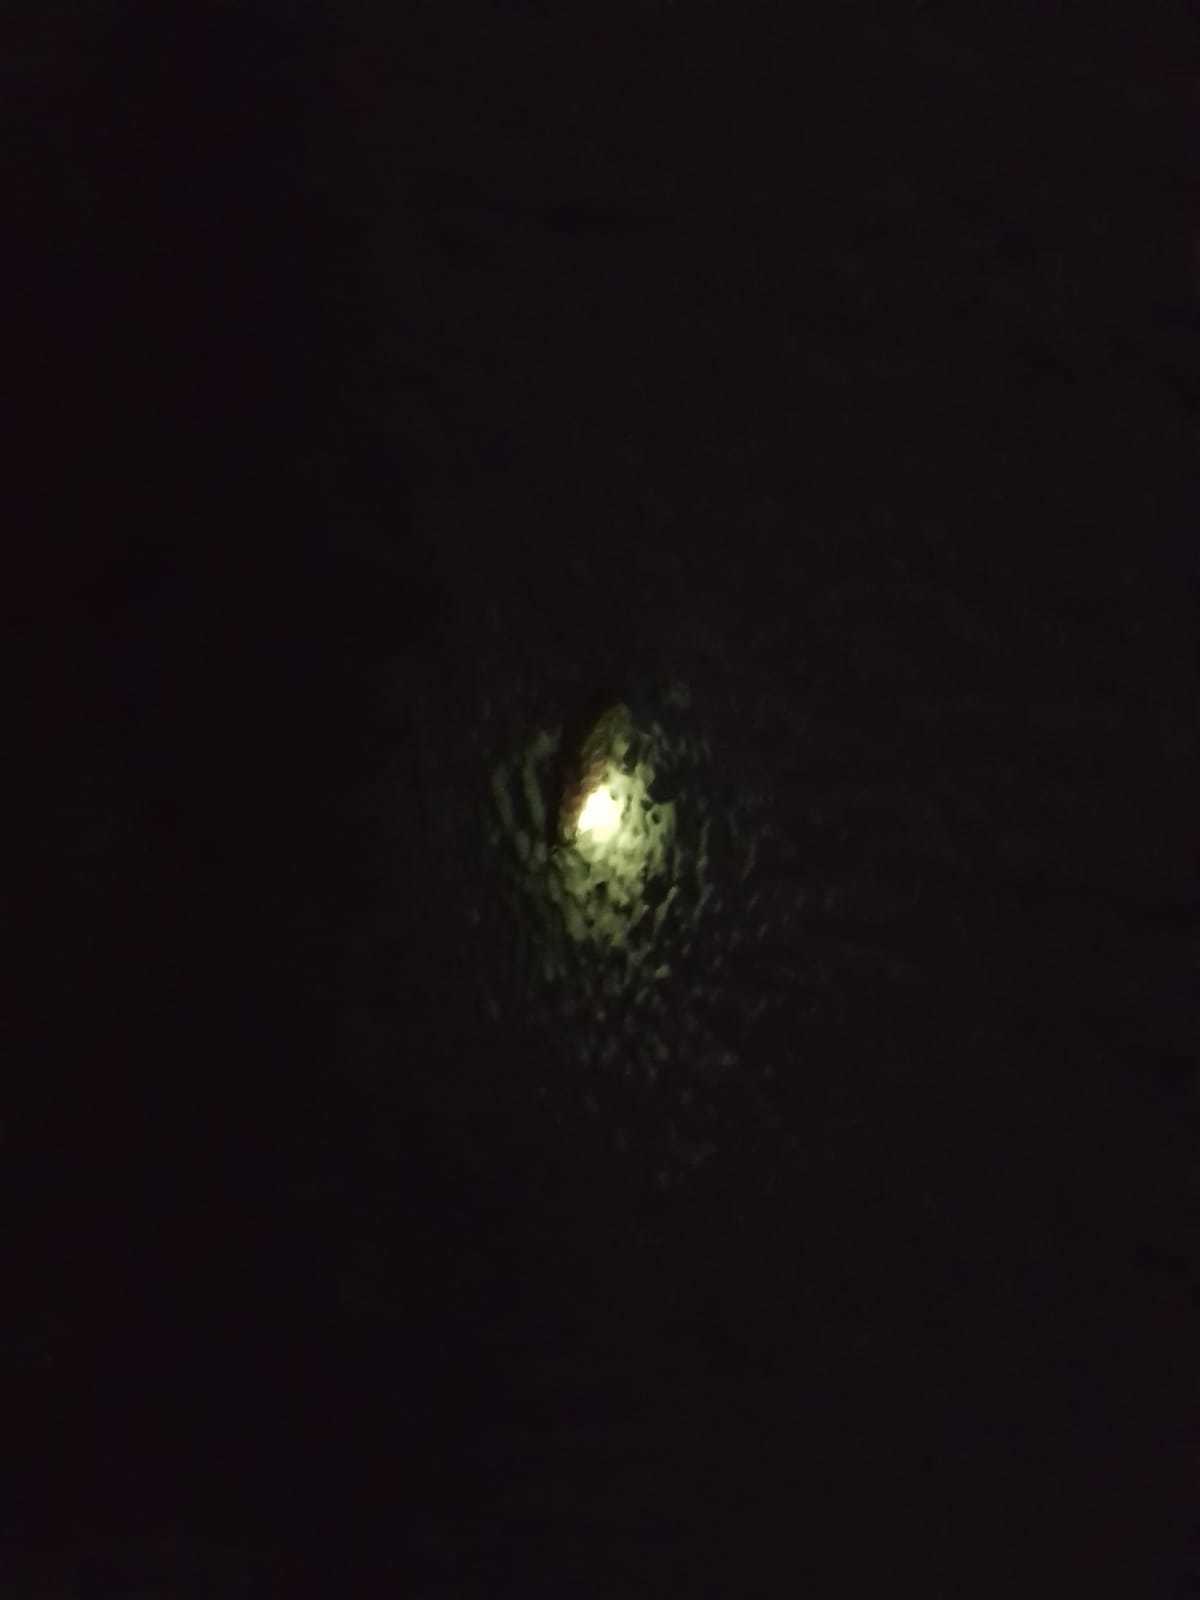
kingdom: Animalia
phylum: Arthropoda
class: Insecta
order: Coleoptera
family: Lampyridae
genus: Nyctophila
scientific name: Nyctophila reichii
